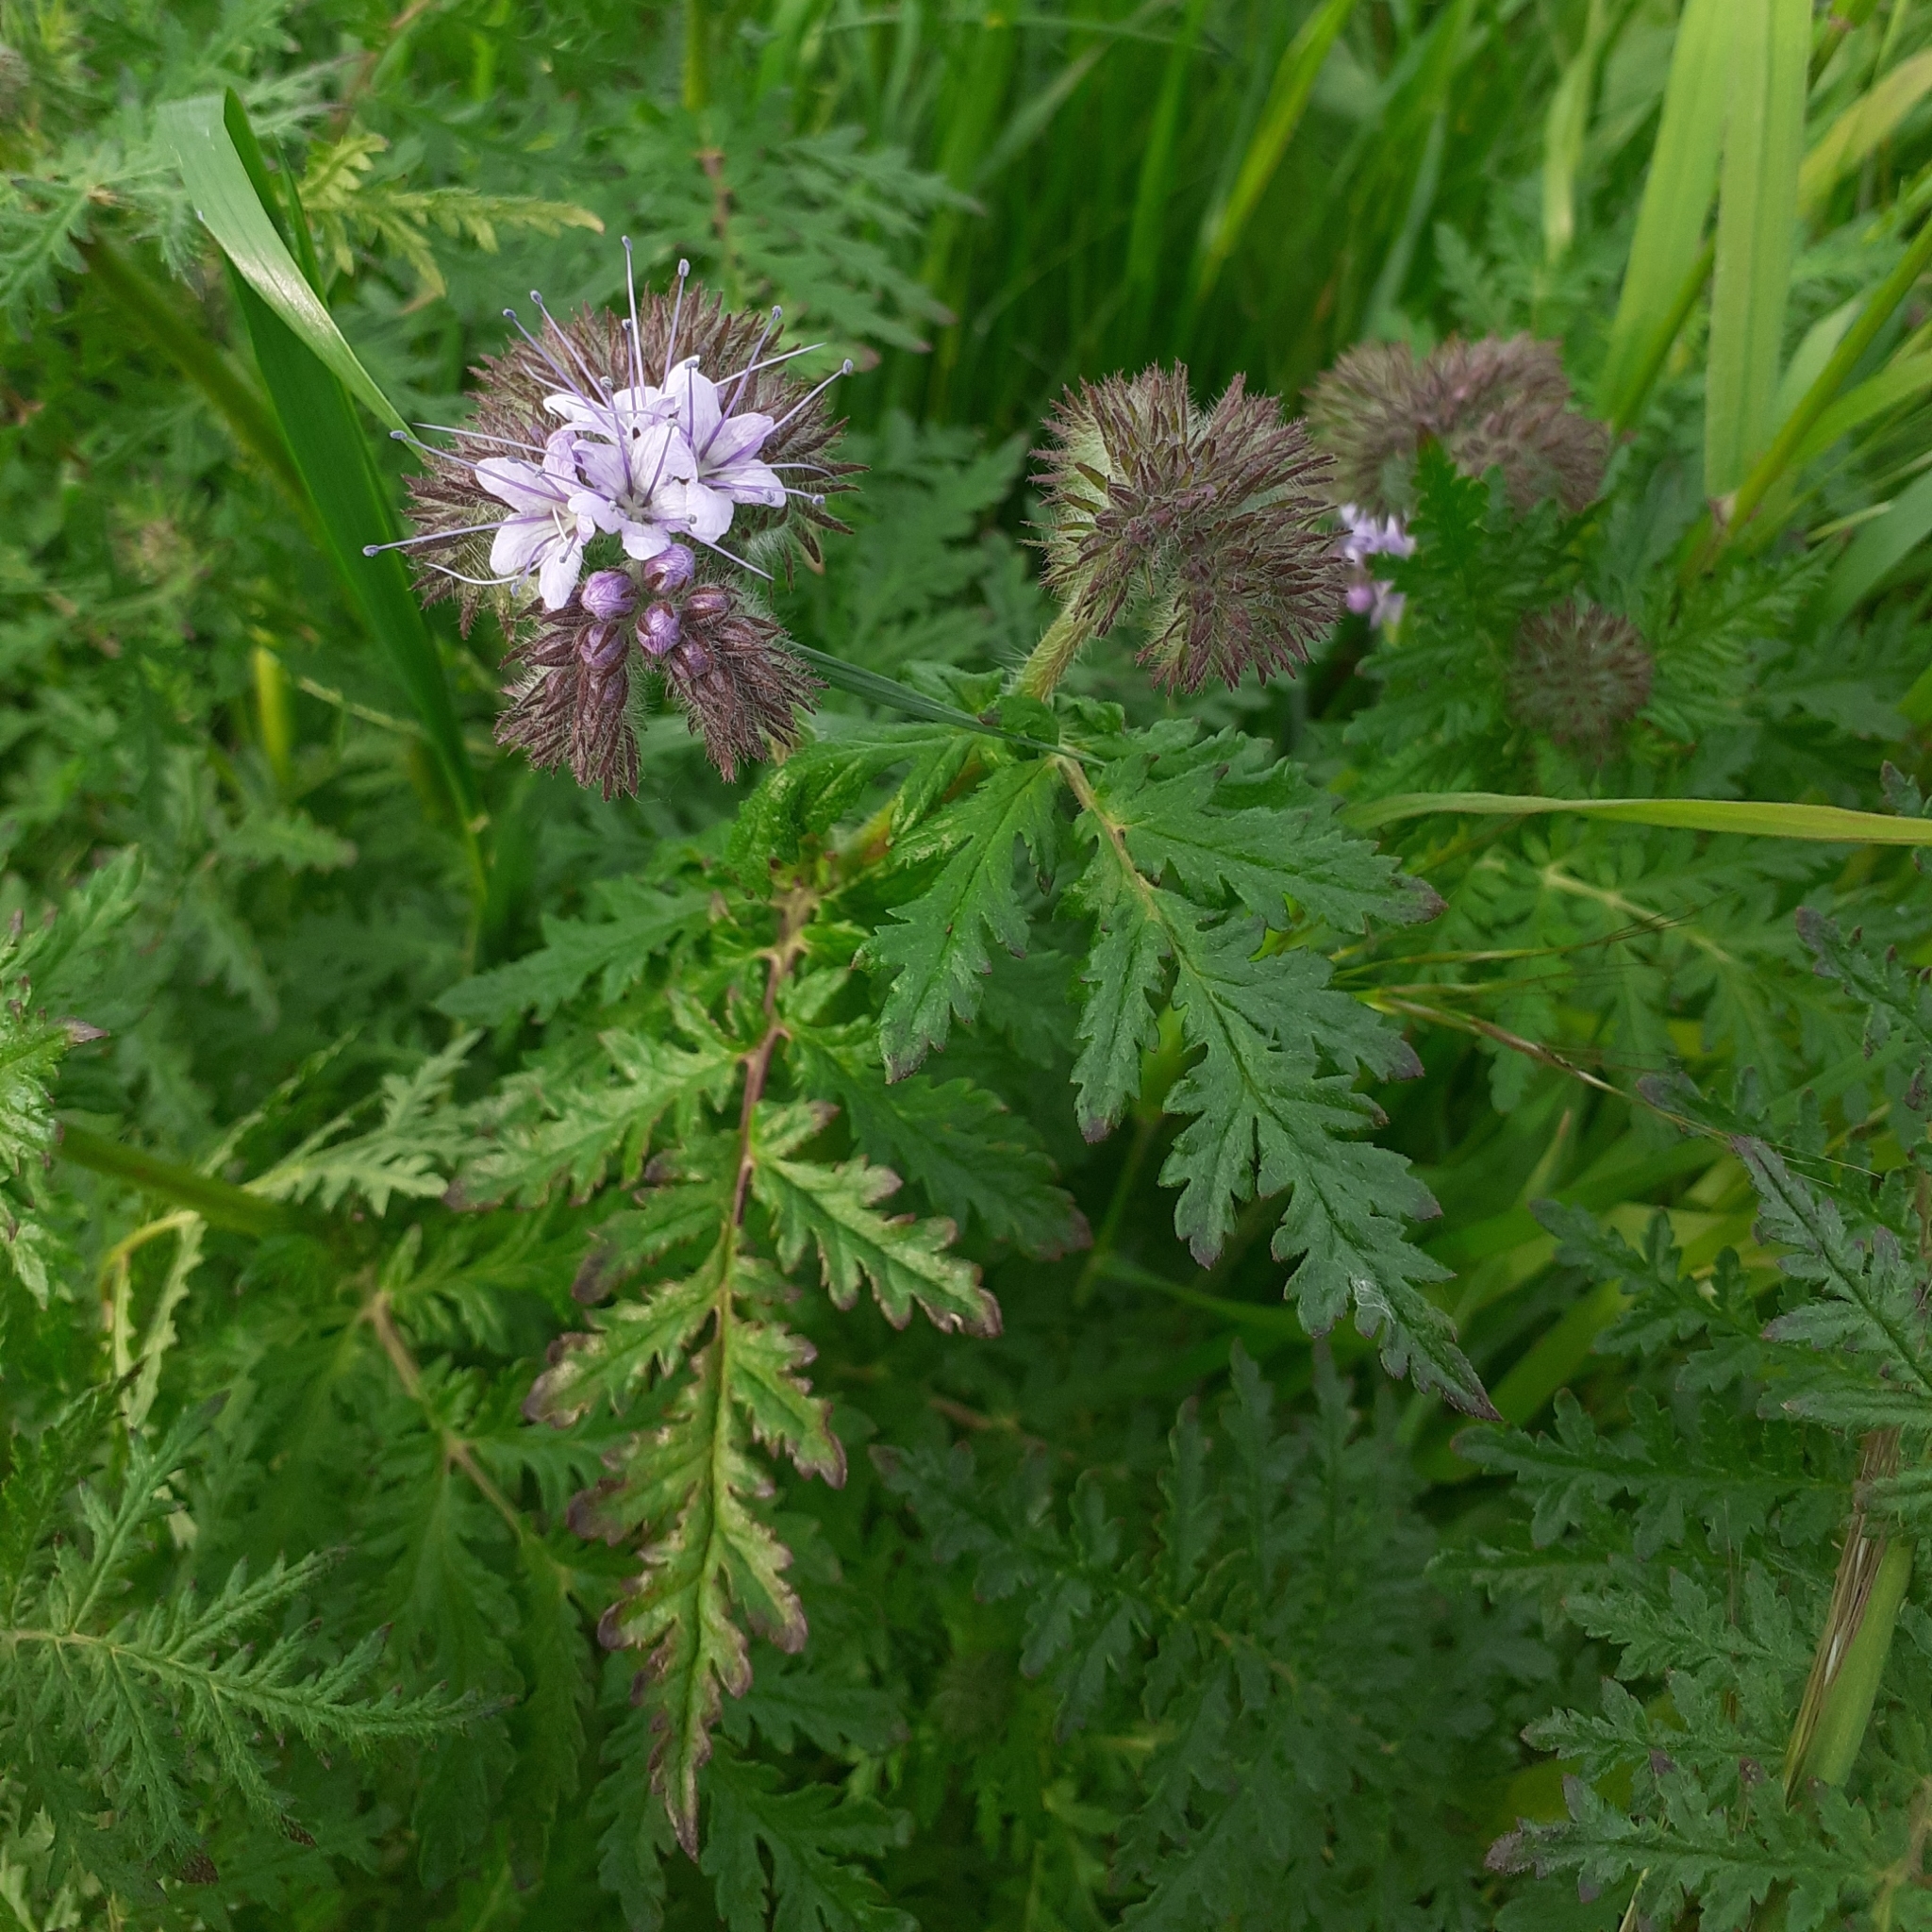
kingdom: Plantae
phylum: Tracheophyta
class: Magnoliopsida
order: Boraginales
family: Hydrophyllaceae
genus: Phacelia
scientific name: Phacelia tanacetifolia
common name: Phacelia
